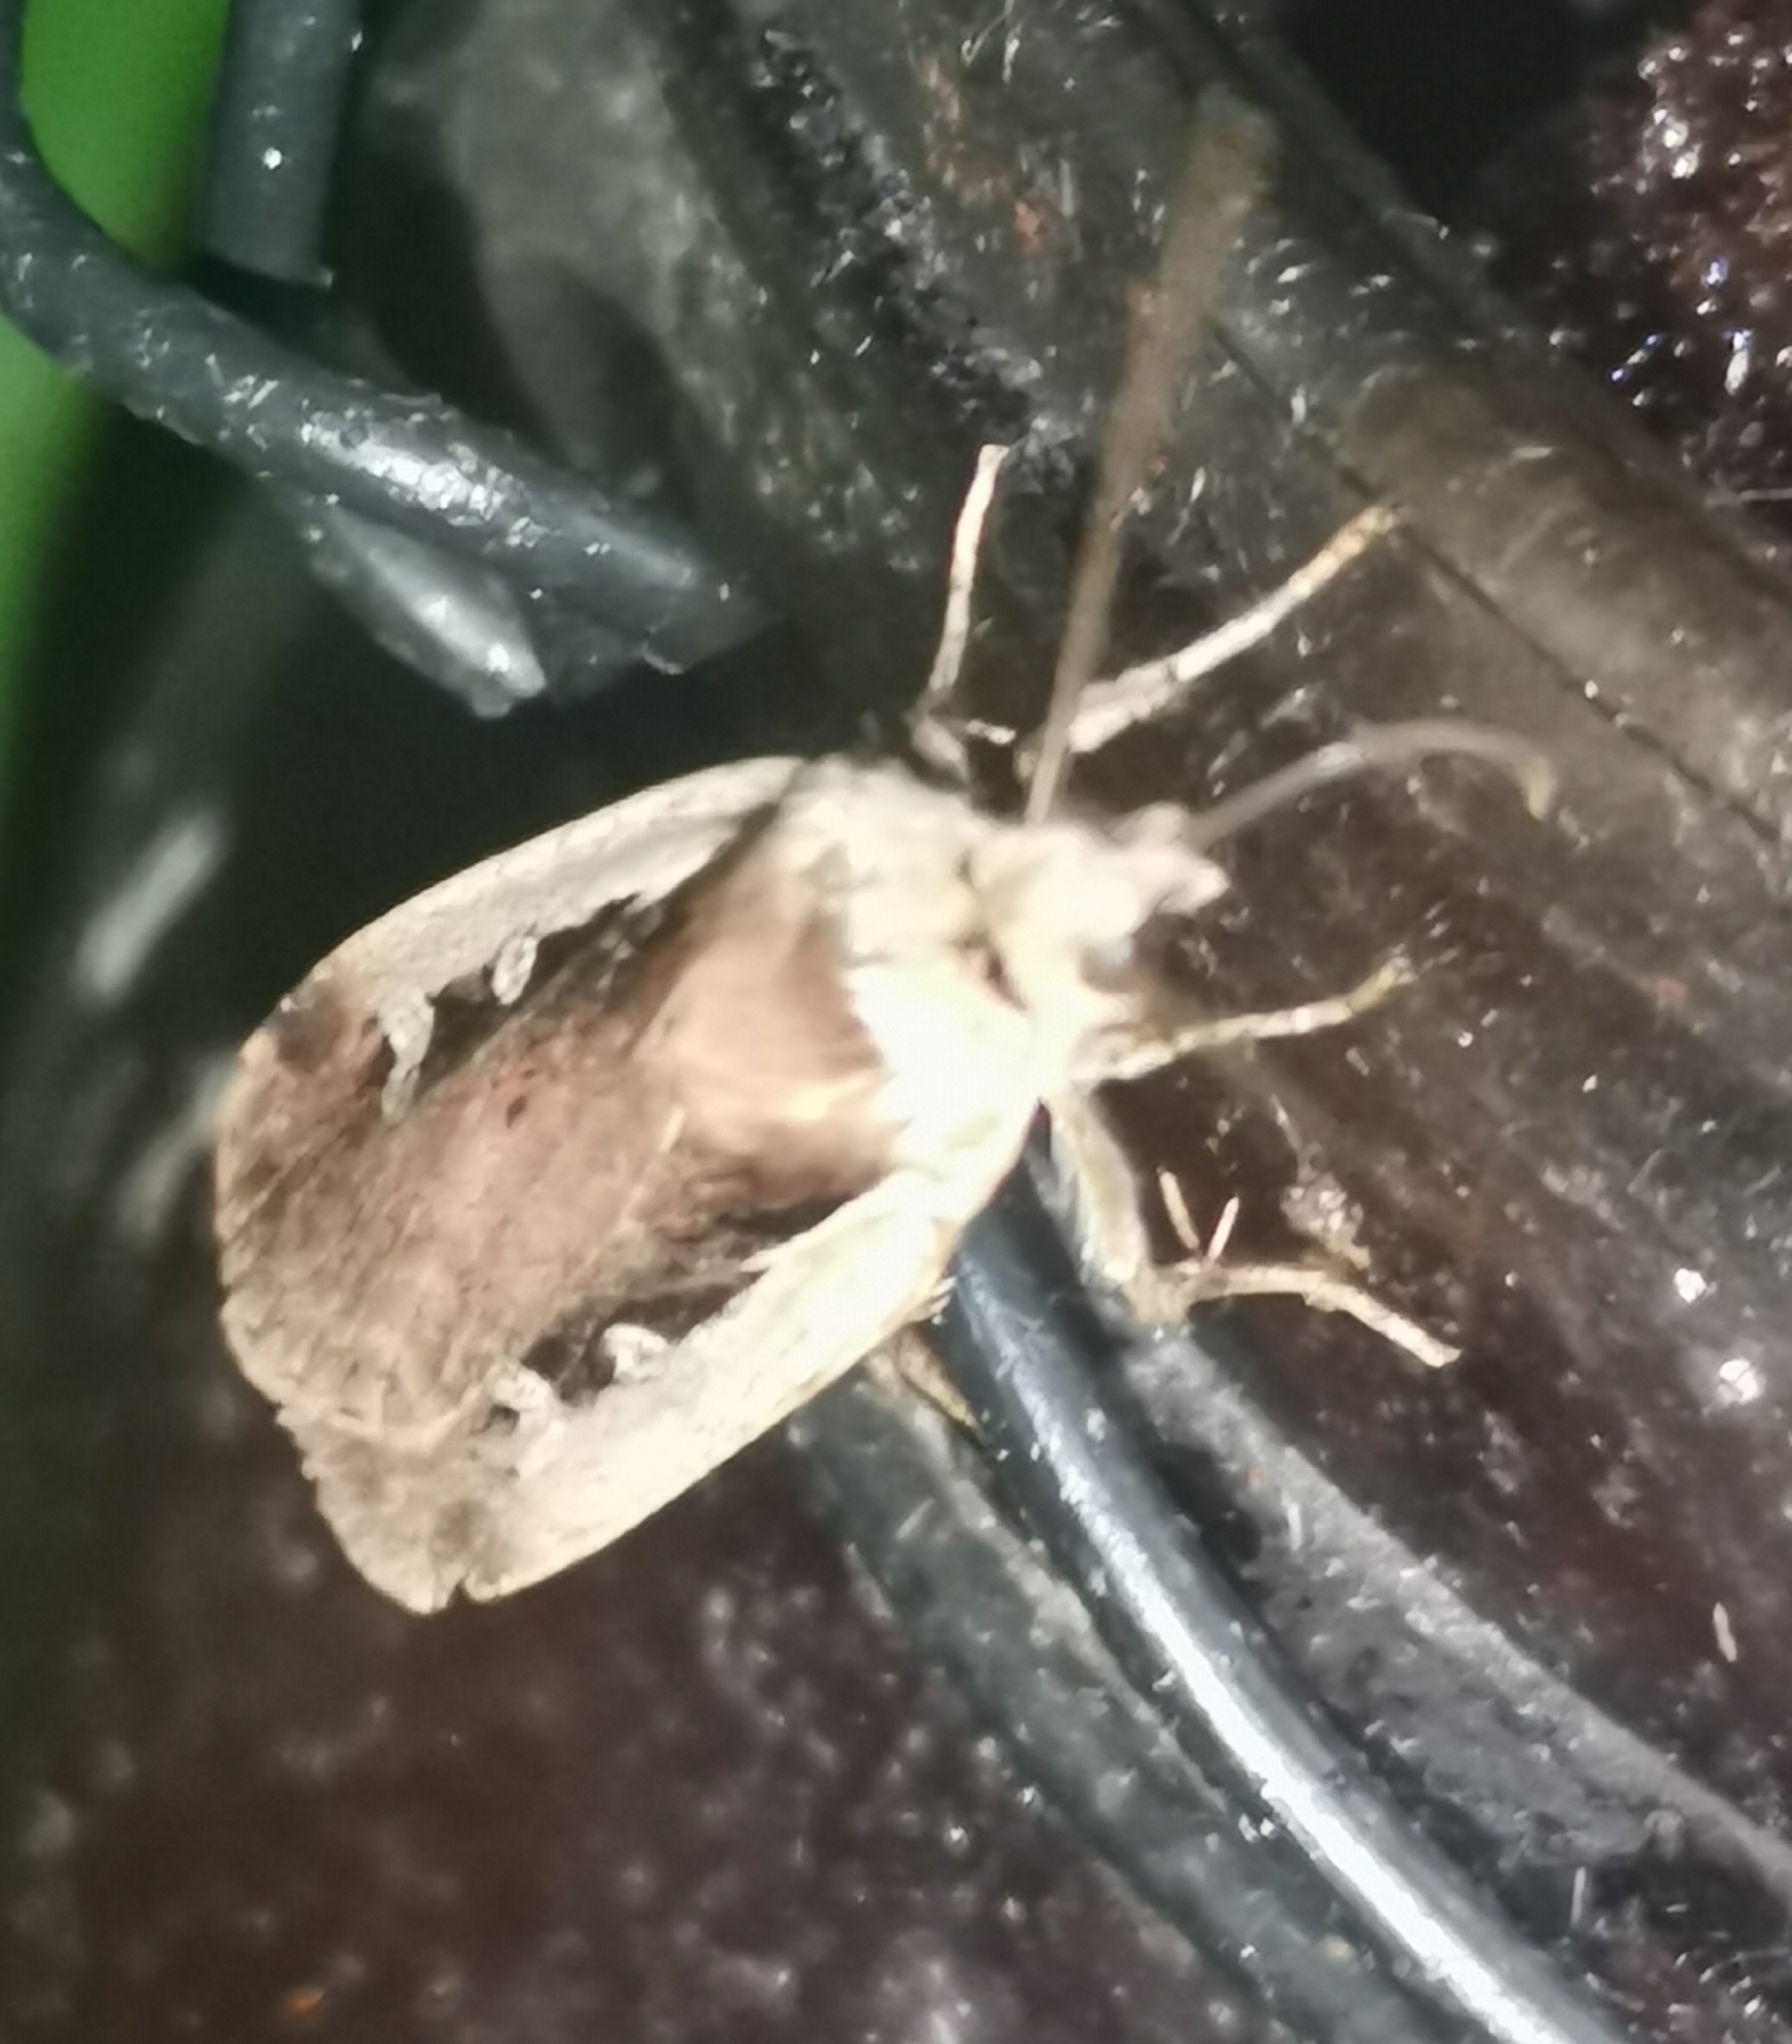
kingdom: Animalia
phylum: Arthropoda
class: Insecta
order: Lepidoptera
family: Noctuidae
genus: Ochropleura
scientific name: Ochropleura plecta
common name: Flame shoulder
